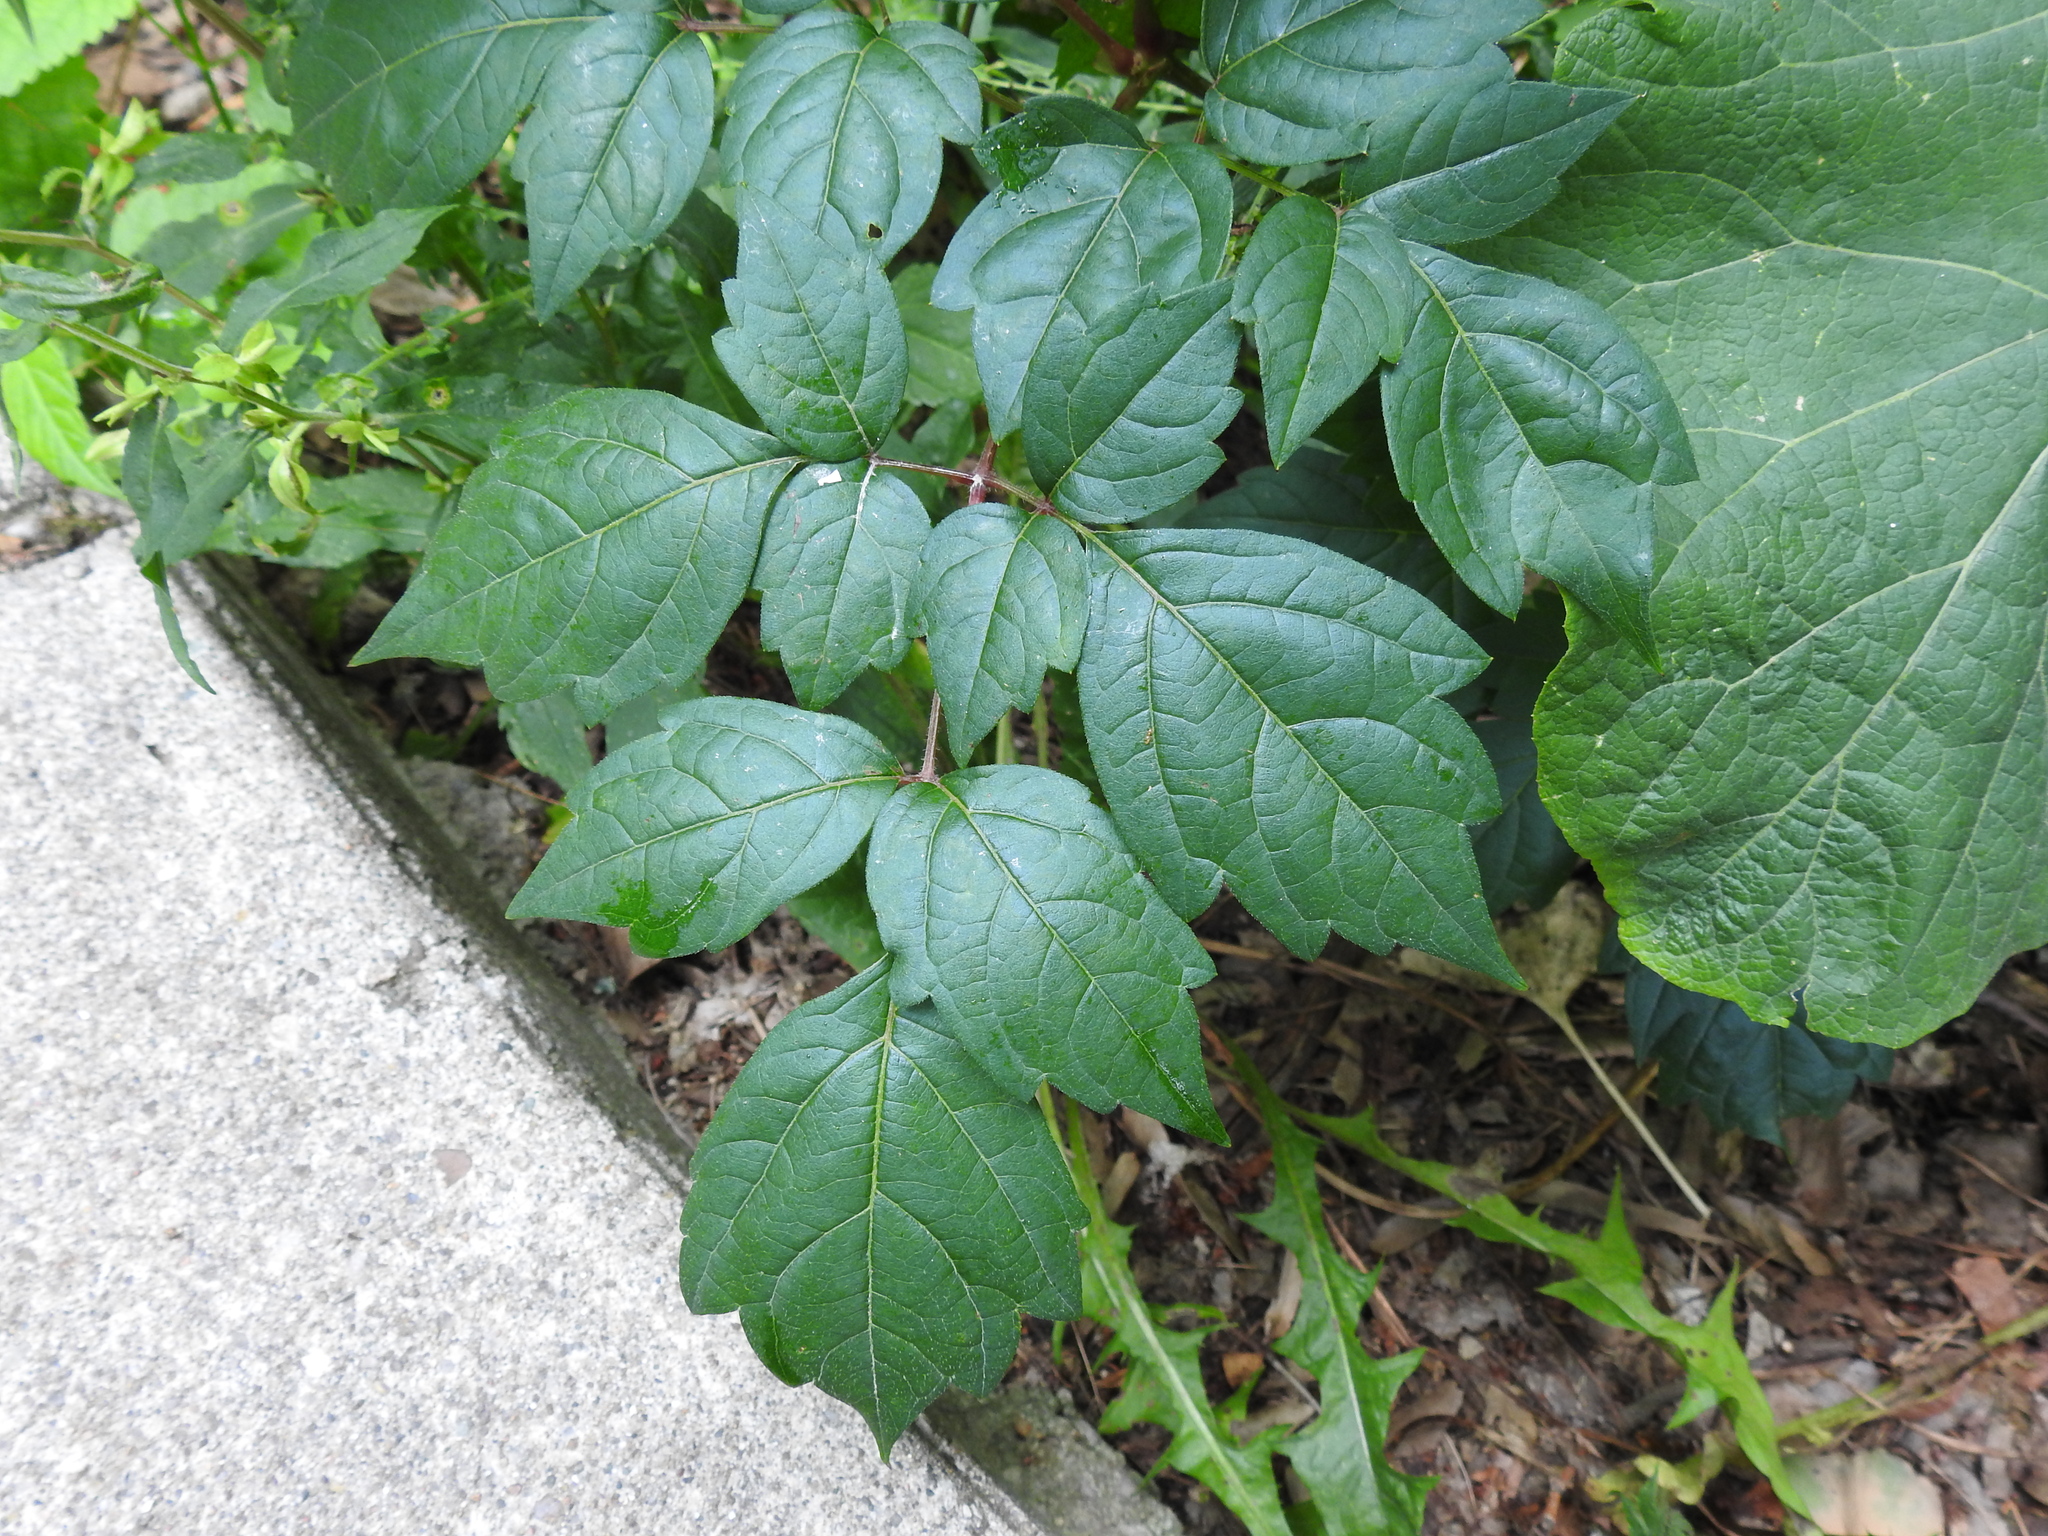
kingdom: Plantae
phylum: Tracheophyta
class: Magnoliopsida
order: Vitales
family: Vitaceae
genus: Nekemias
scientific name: Nekemias arborea
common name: Peppervine
